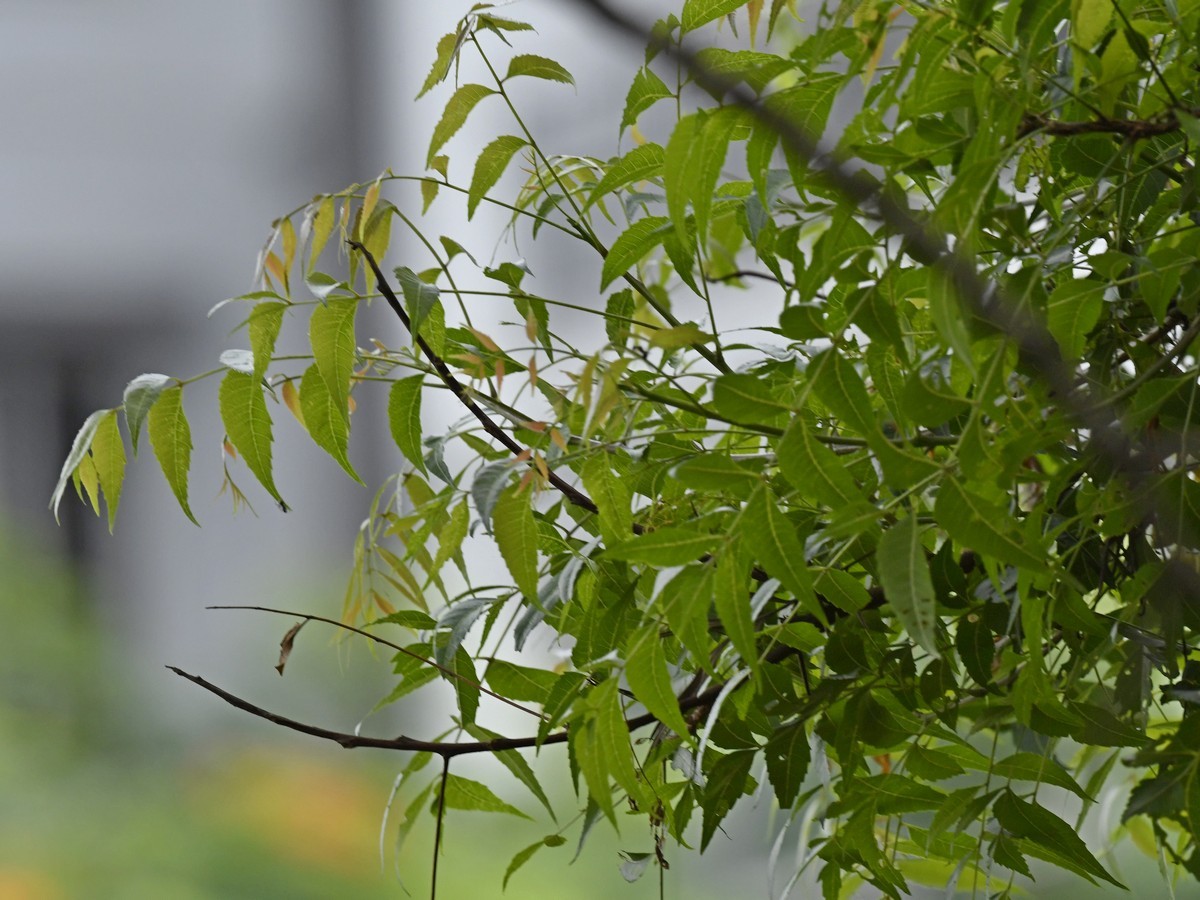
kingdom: Plantae
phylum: Tracheophyta
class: Magnoliopsida
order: Sapindales
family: Meliaceae
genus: Azadirachta
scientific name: Azadirachta indica
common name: Neem
